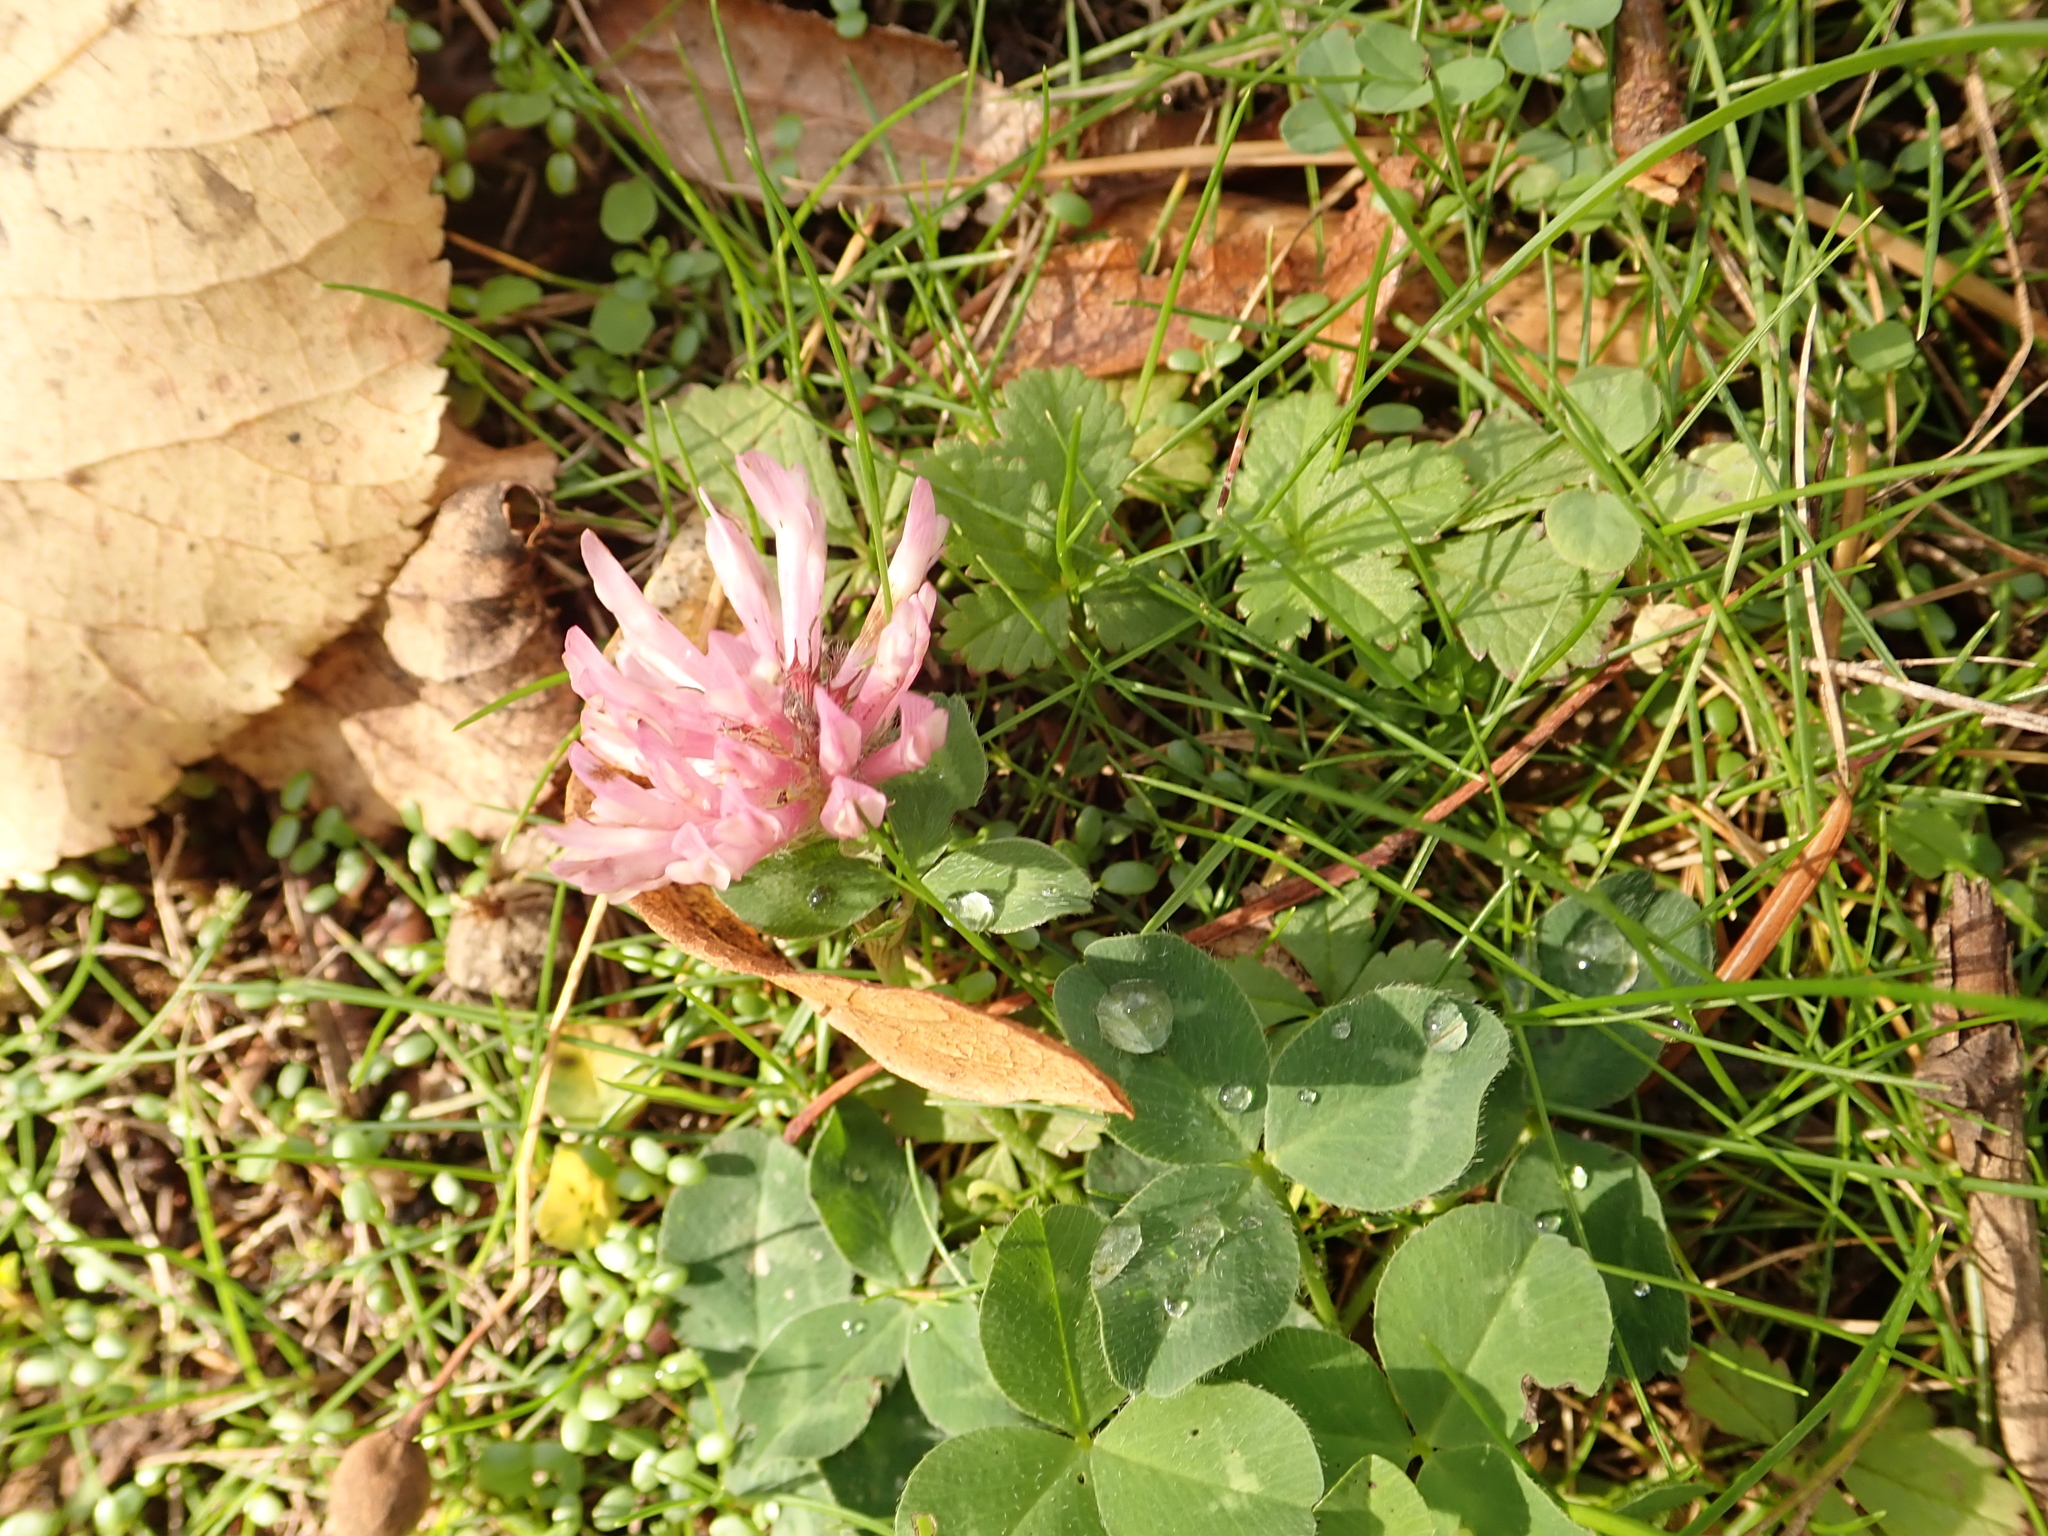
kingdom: Plantae
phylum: Tracheophyta
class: Magnoliopsida
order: Fabales
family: Fabaceae
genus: Trifolium
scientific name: Trifolium pratense
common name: Red clover
